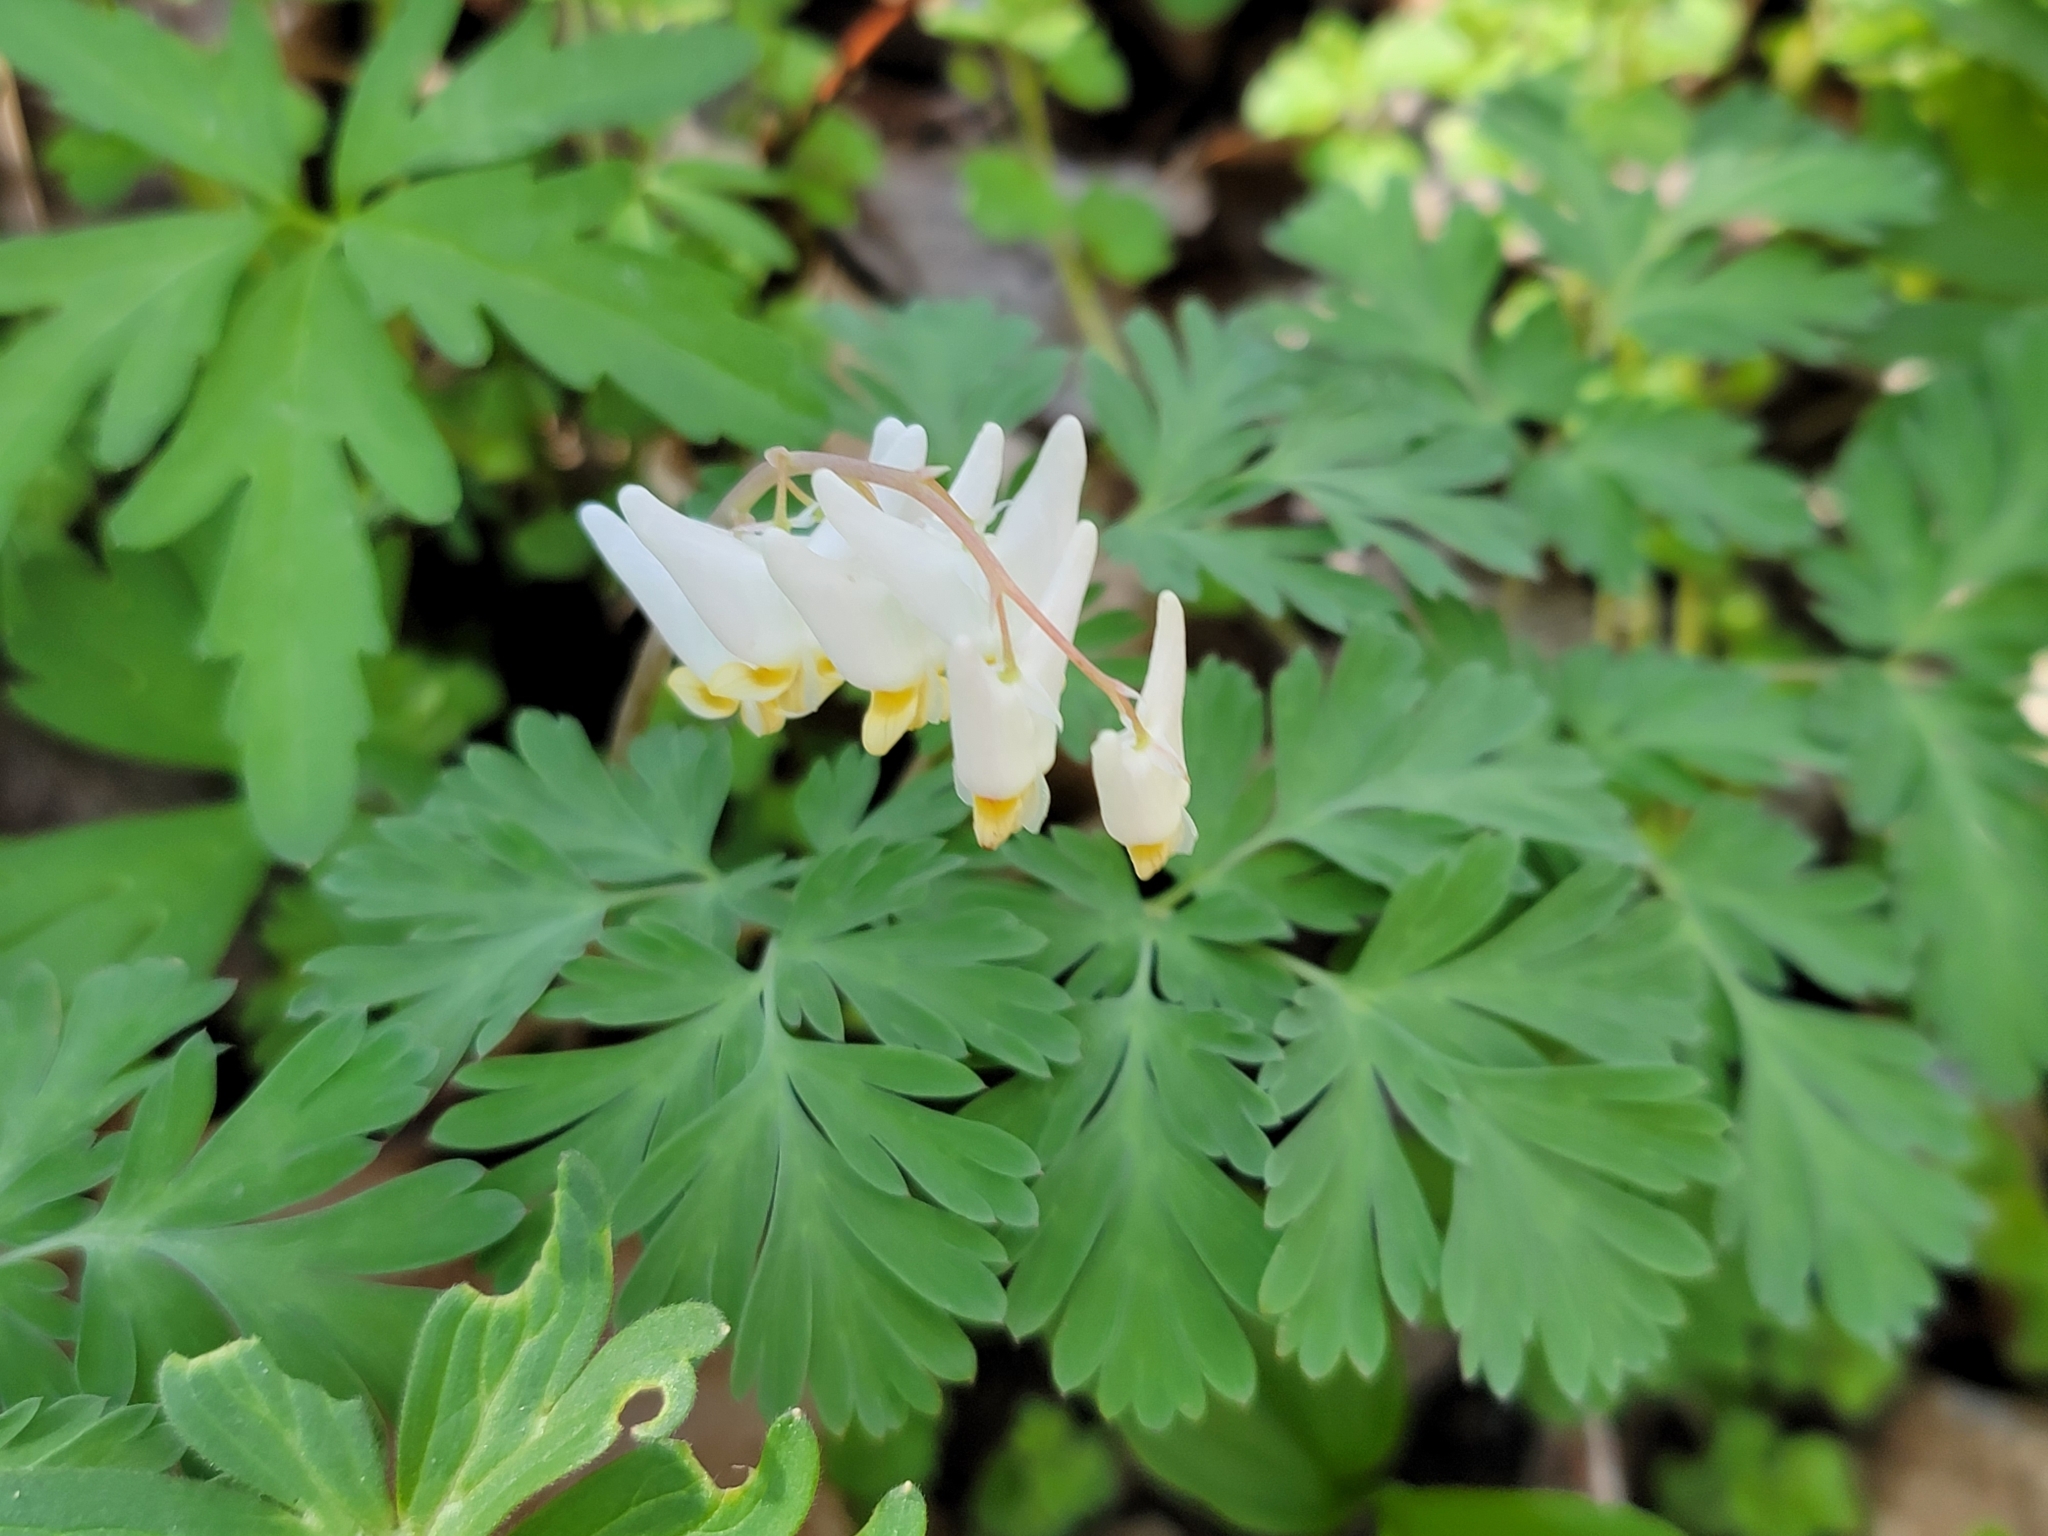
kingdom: Plantae
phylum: Tracheophyta
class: Magnoliopsida
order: Ranunculales
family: Papaveraceae
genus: Dicentra
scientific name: Dicentra cucullaria
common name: Dutchman's breeches
